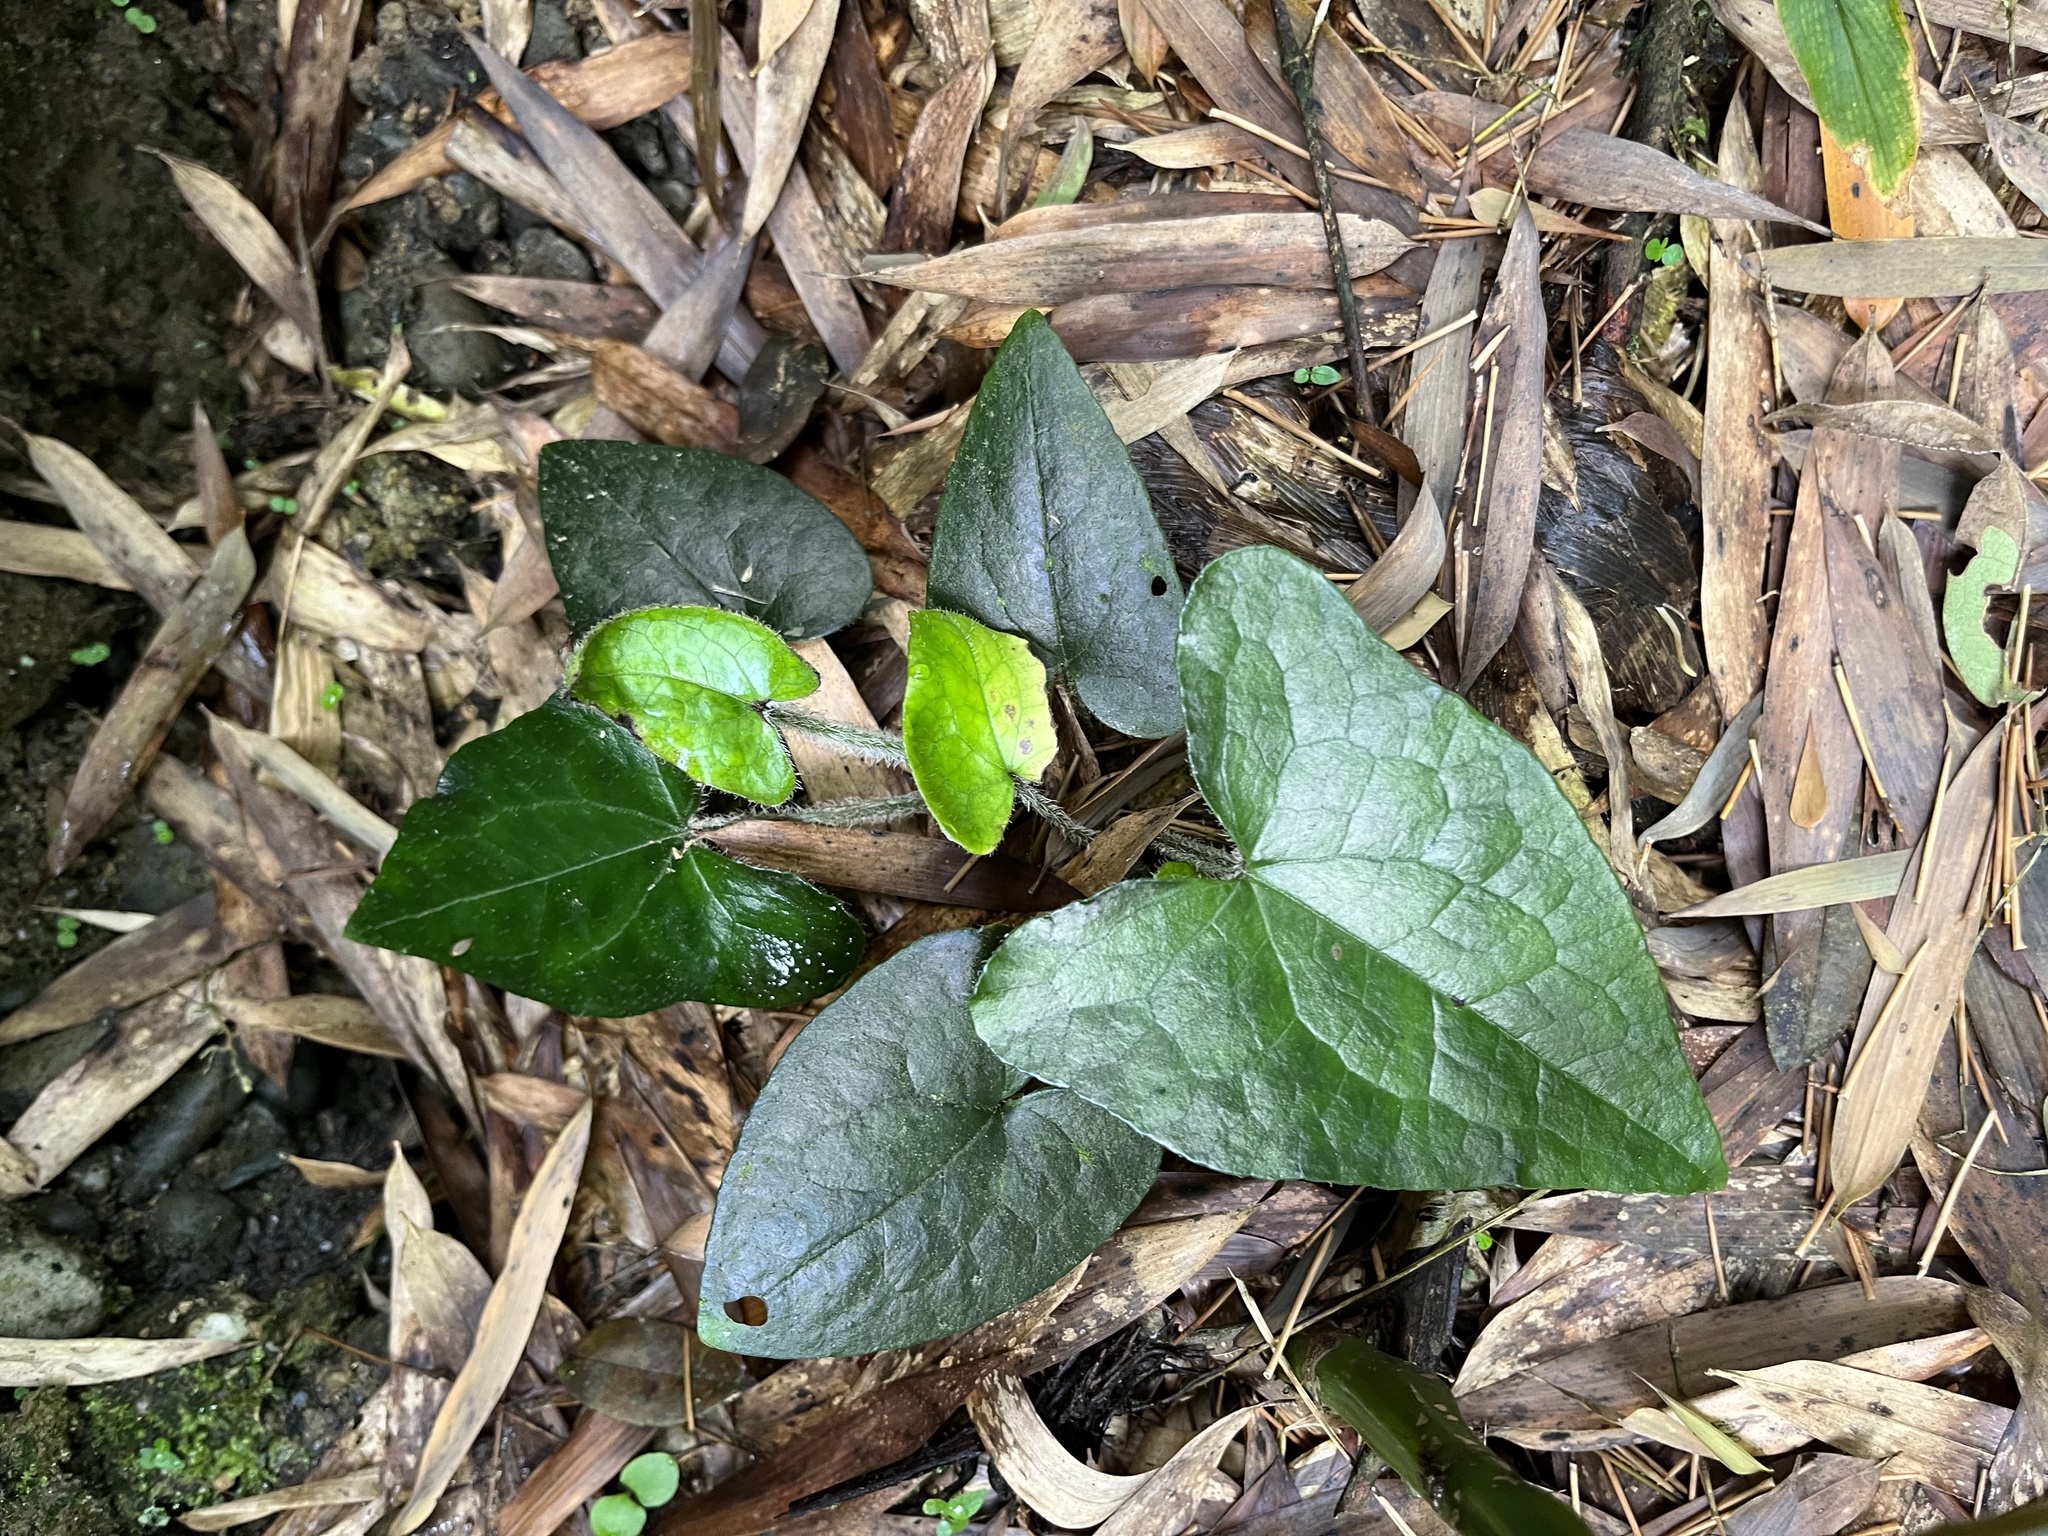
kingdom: Plantae
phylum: Tracheophyta
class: Magnoliopsida
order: Piperales
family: Aristolochiaceae
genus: Asarum
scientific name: Asarum caudigerum
